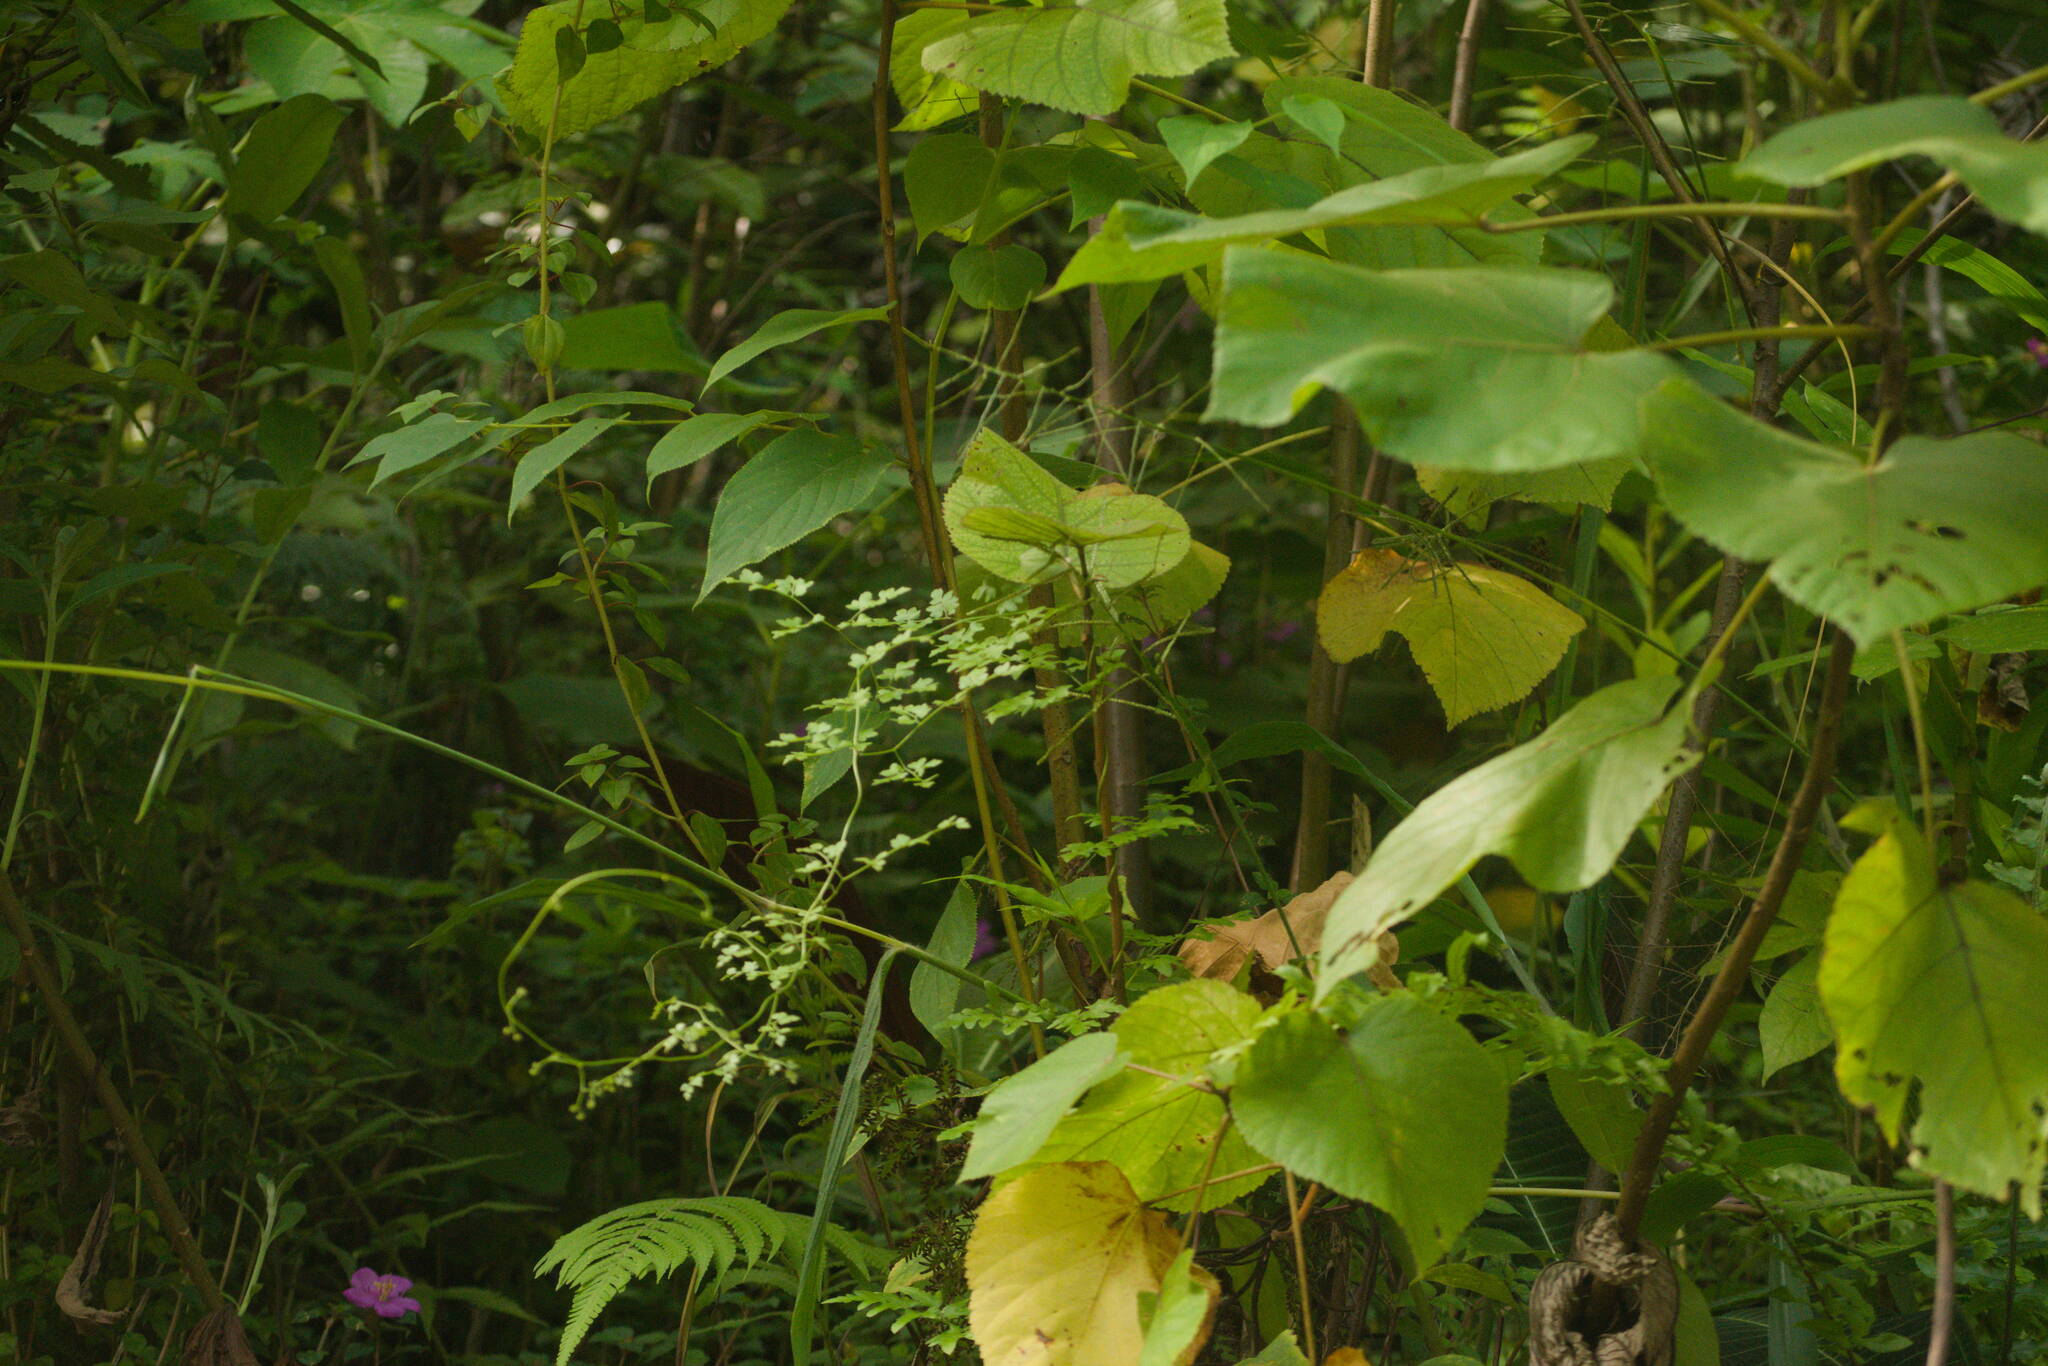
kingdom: Plantae
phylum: Tracheophyta
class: Polypodiopsida
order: Schizaeales
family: Lygodiaceae
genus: Lygodium
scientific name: Lygodium japonicum
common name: Japanese climbing fern
